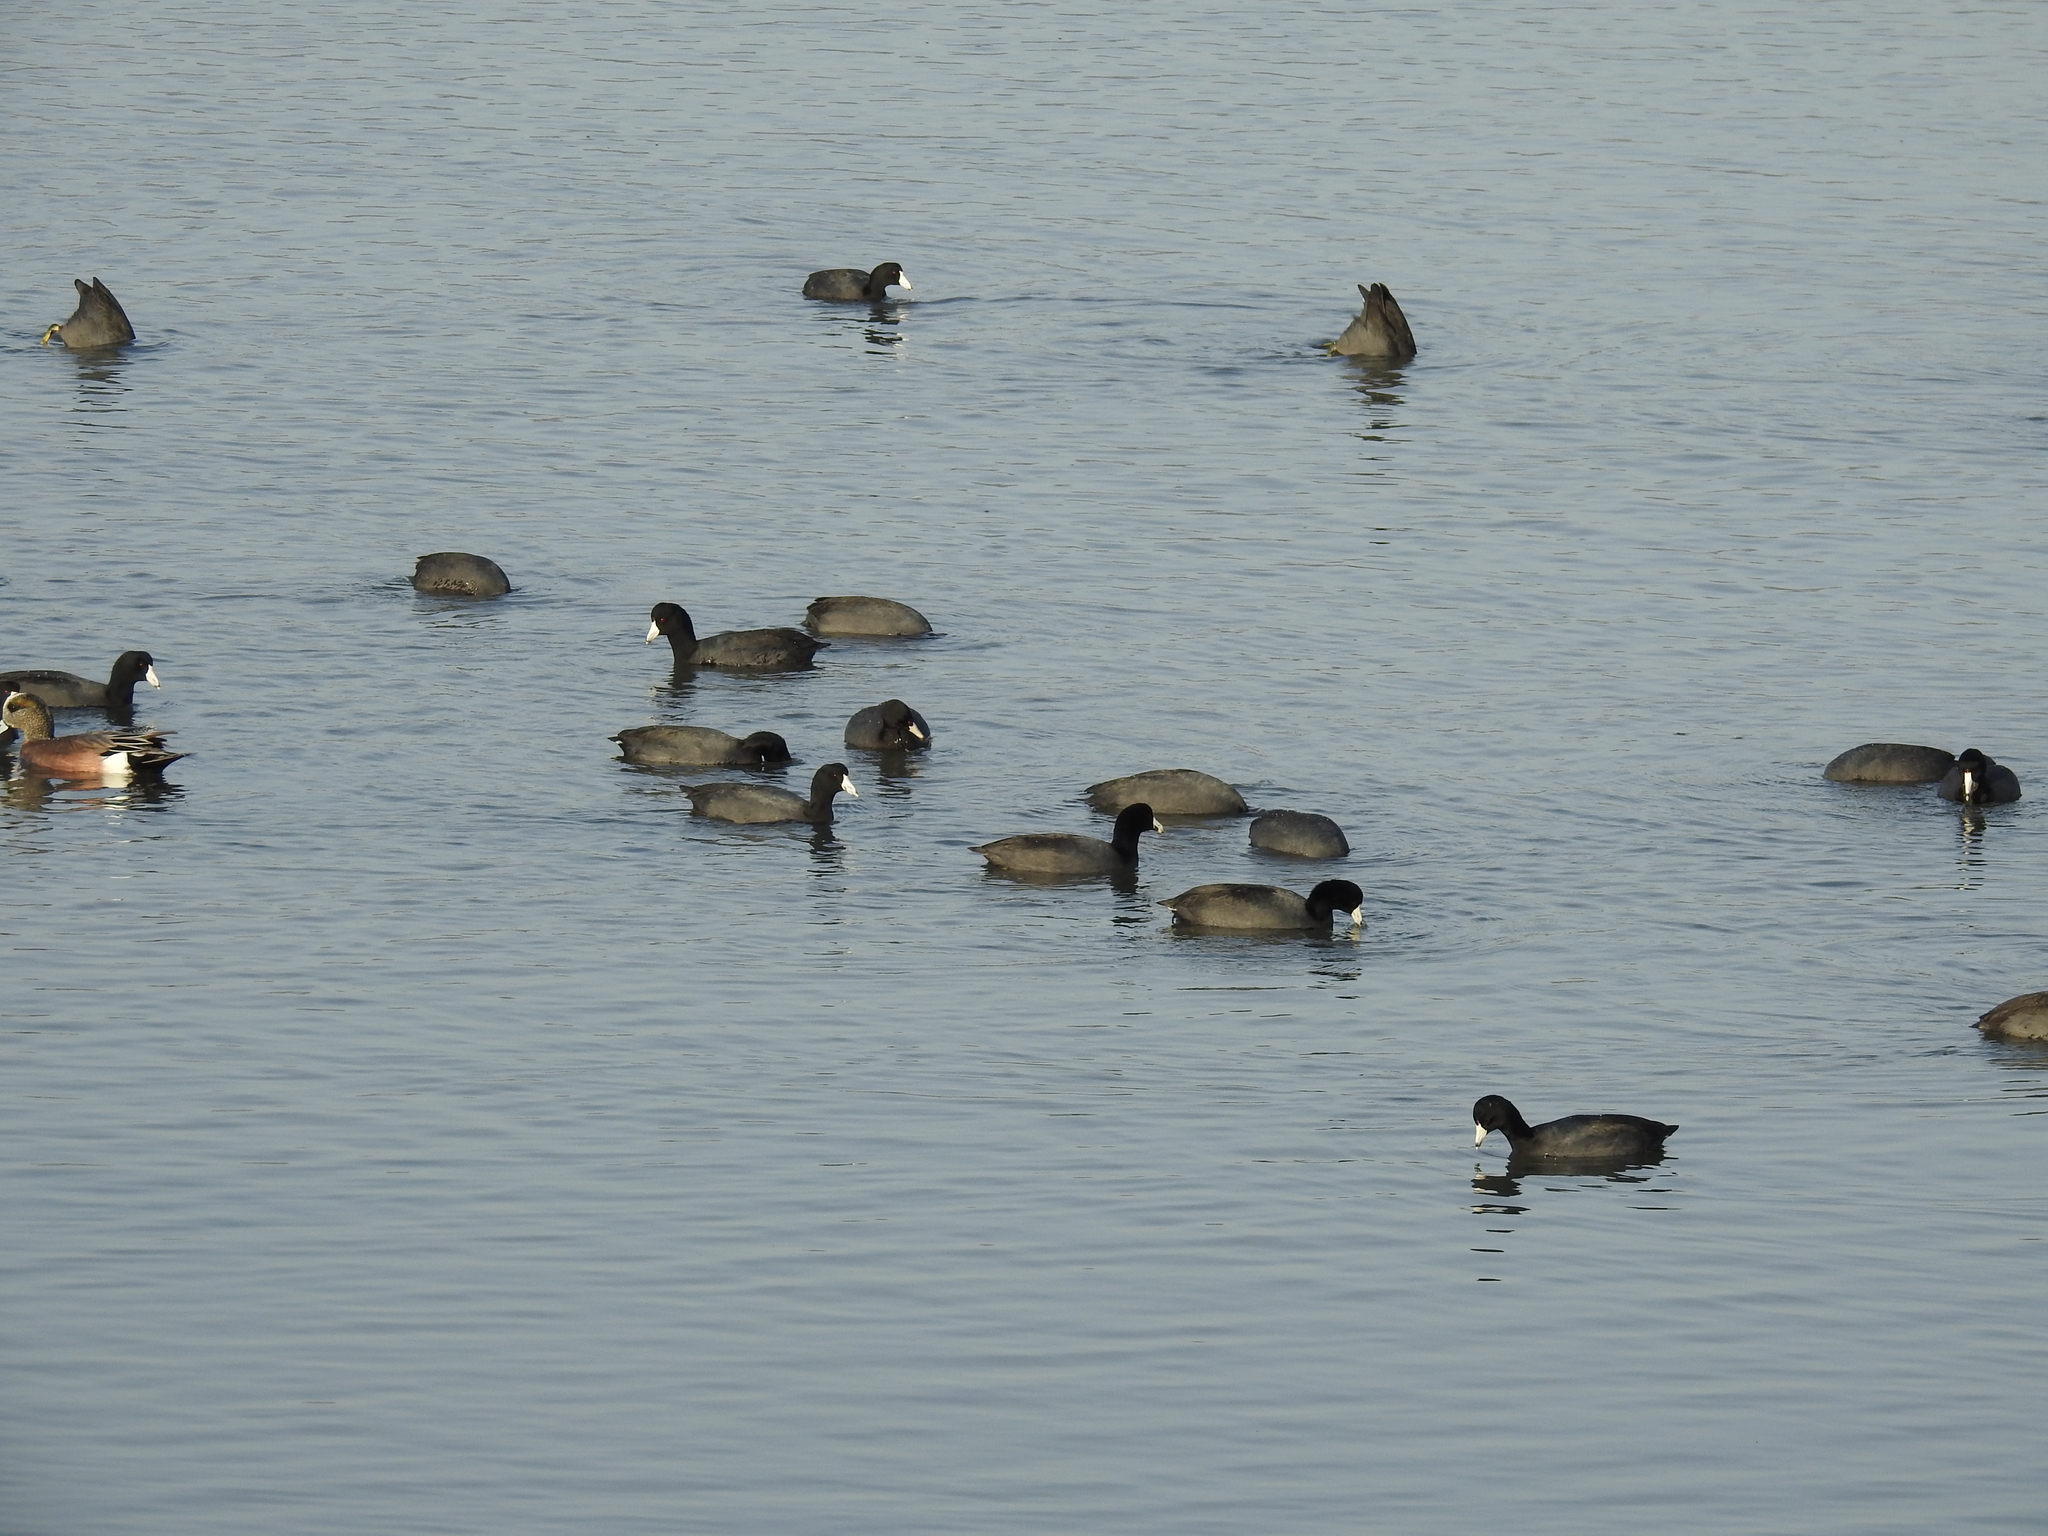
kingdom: Animalia
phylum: Chordata
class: Aves
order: Gruiformes
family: Rallidae
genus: Fulica
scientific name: Fulica americana
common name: American coot
